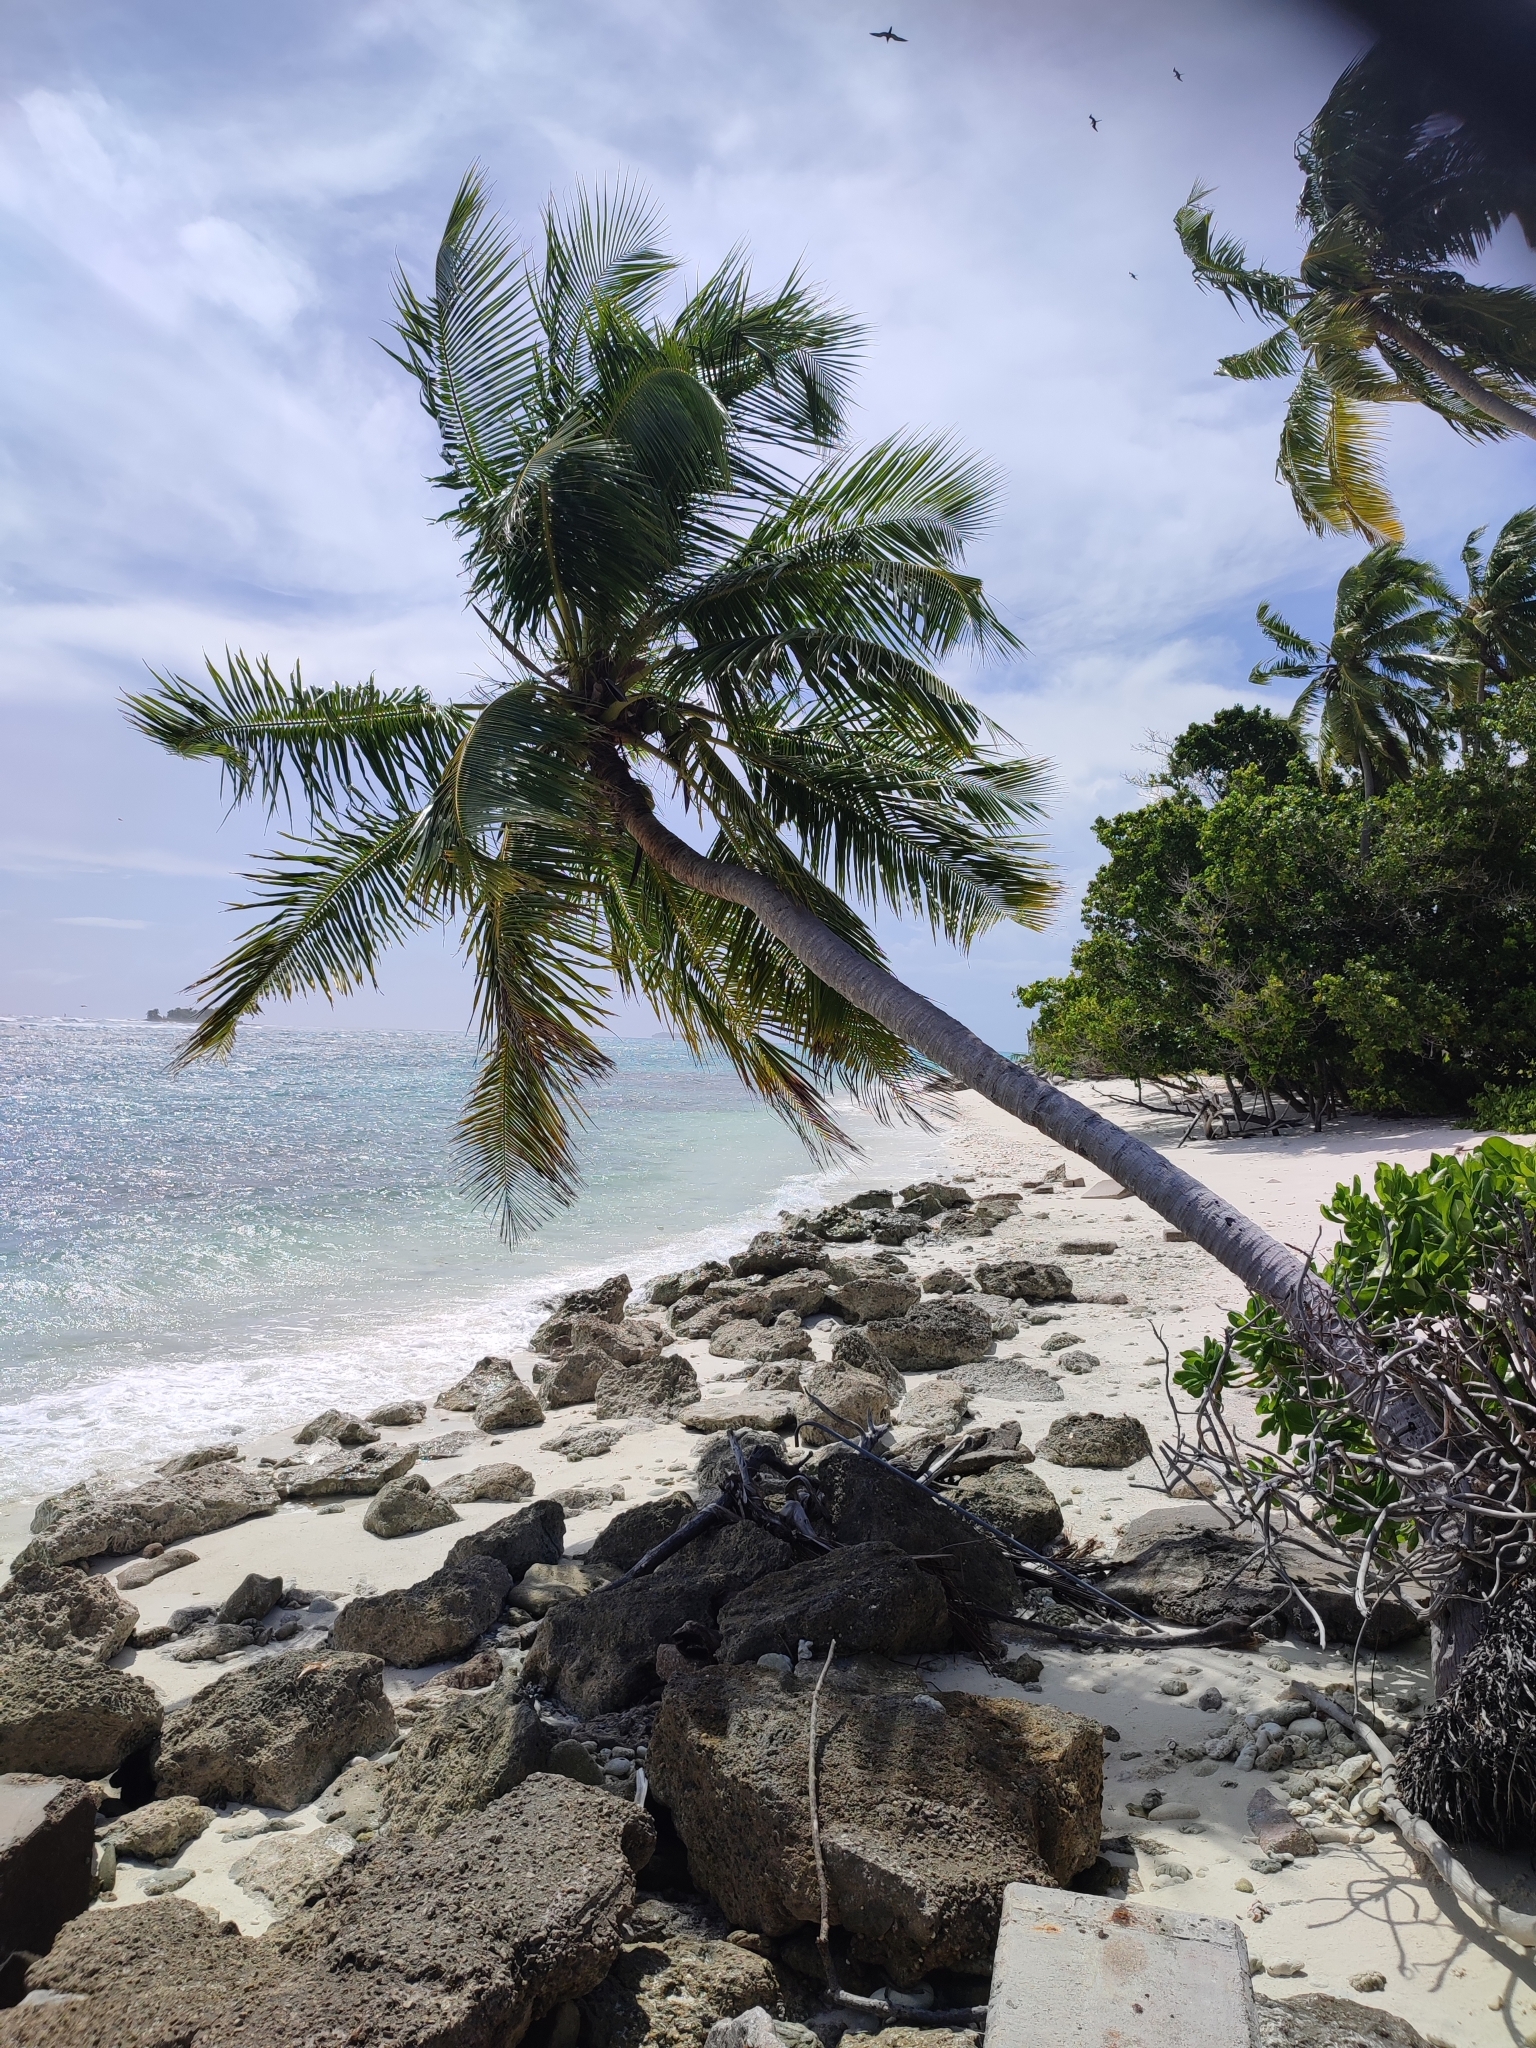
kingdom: Plantae
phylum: Tracheophyta
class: Liliopsida
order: Arecales
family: Arecaceae
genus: Cocos
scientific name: Cocos nucifera
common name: Coconut palm
